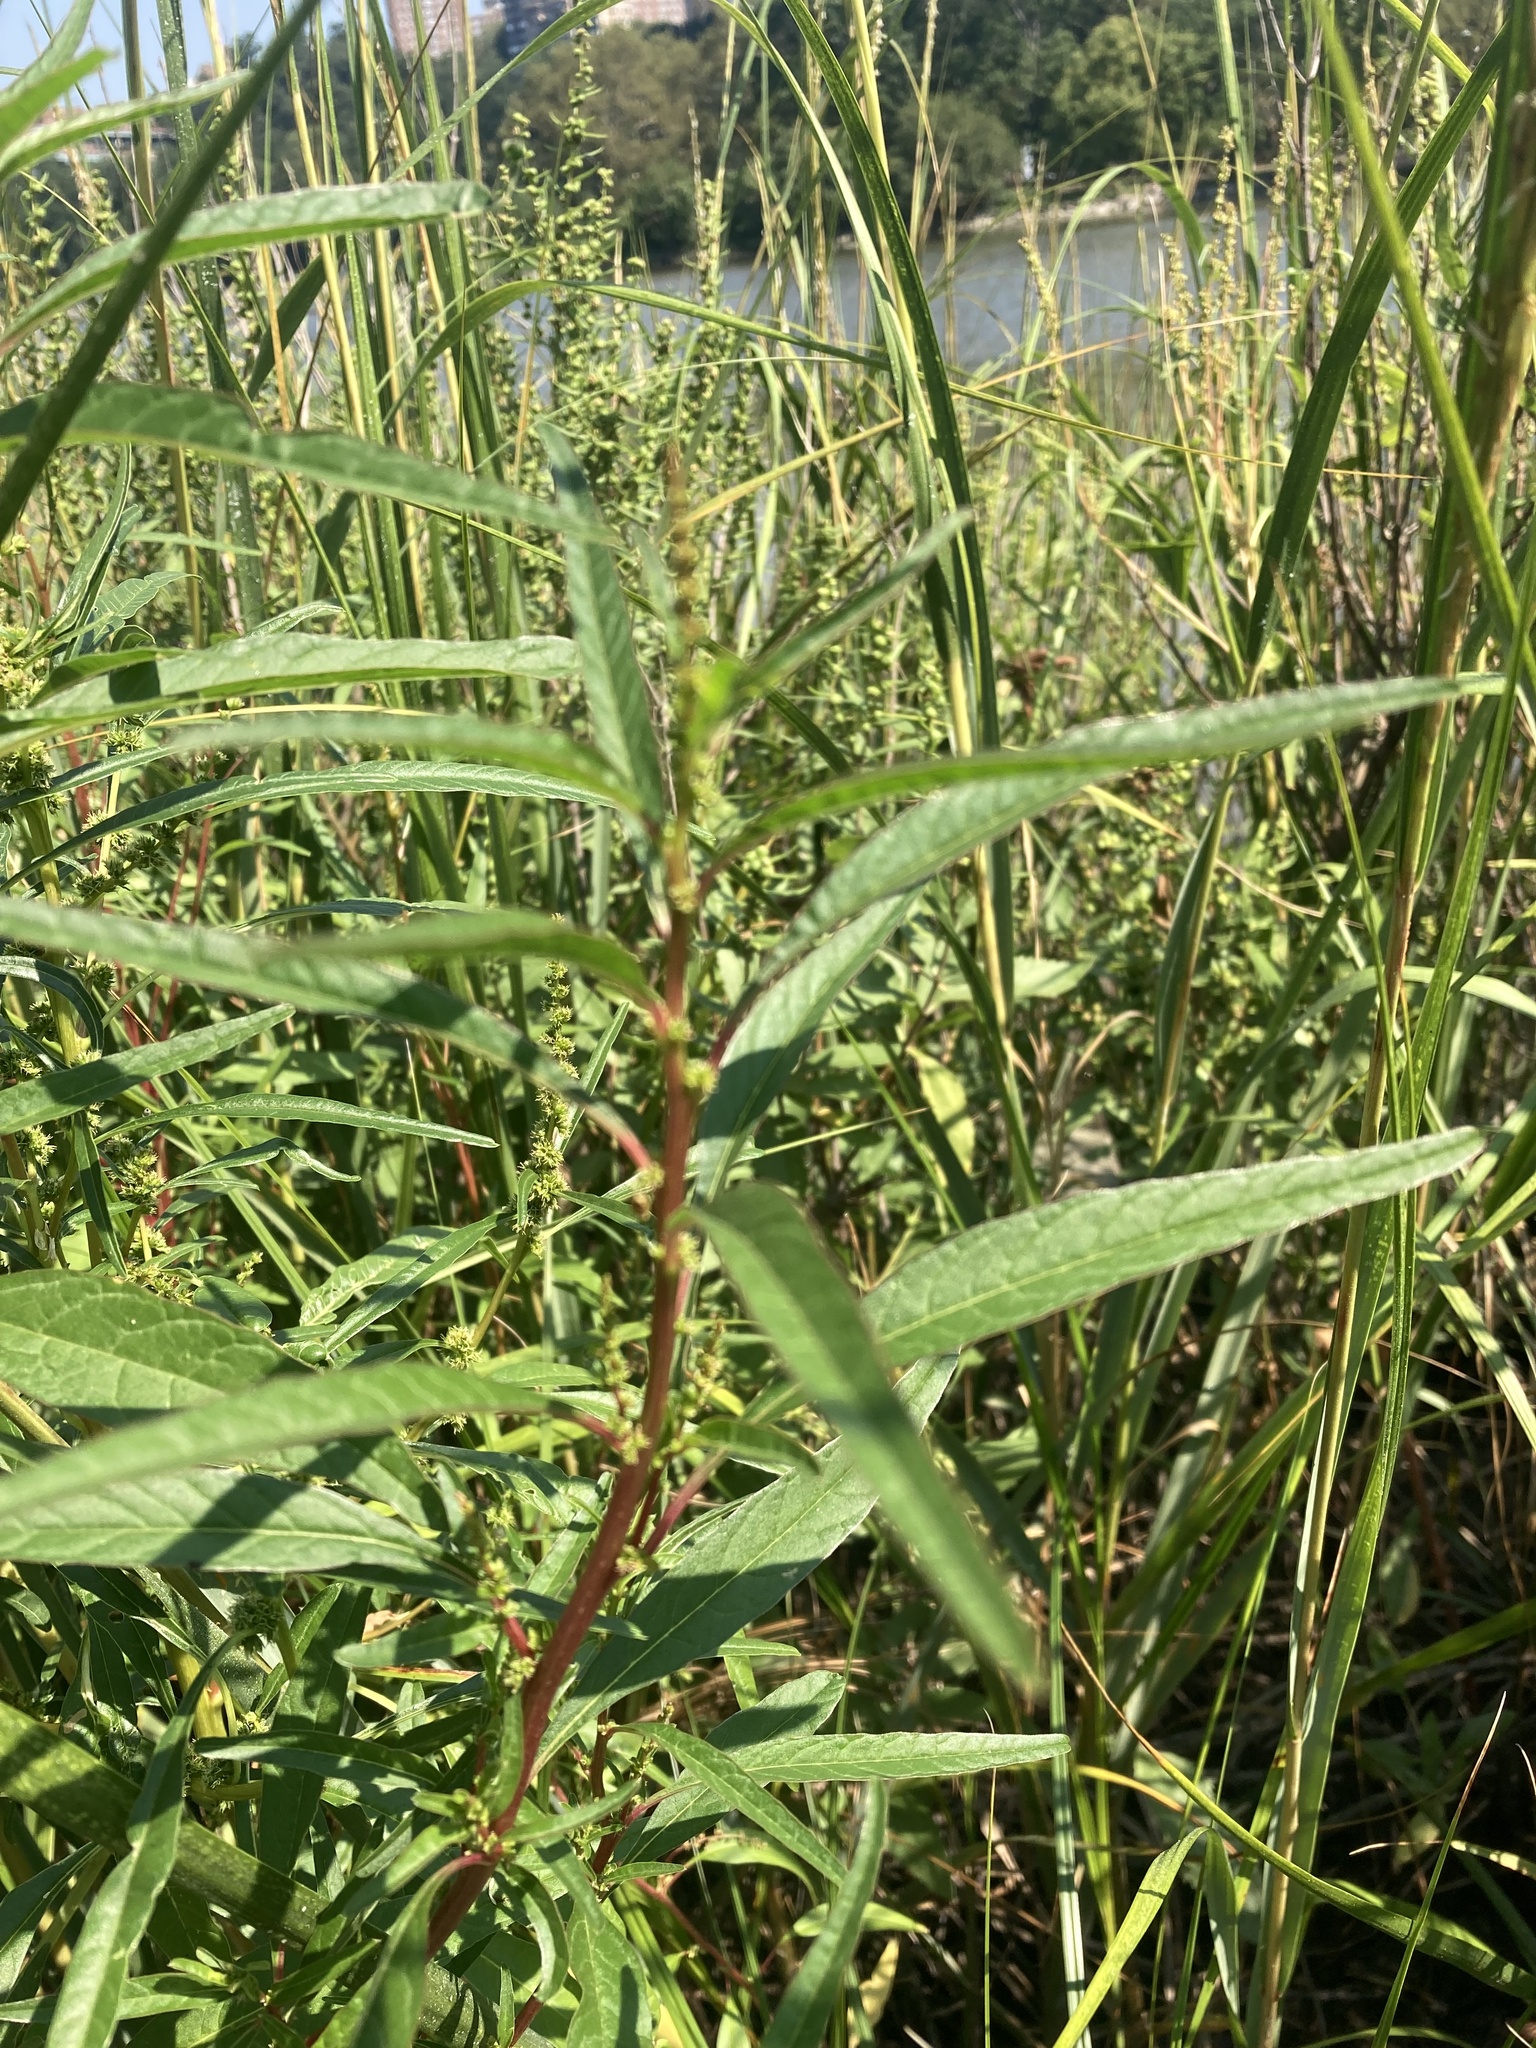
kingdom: Plantae
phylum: Tracheophyta
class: Magnoliopsida
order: Caryophyllales
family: Amaranthaceae
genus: Amaranthus
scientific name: Amaranthus cannabinus
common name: Salt-marsh water-hemp
